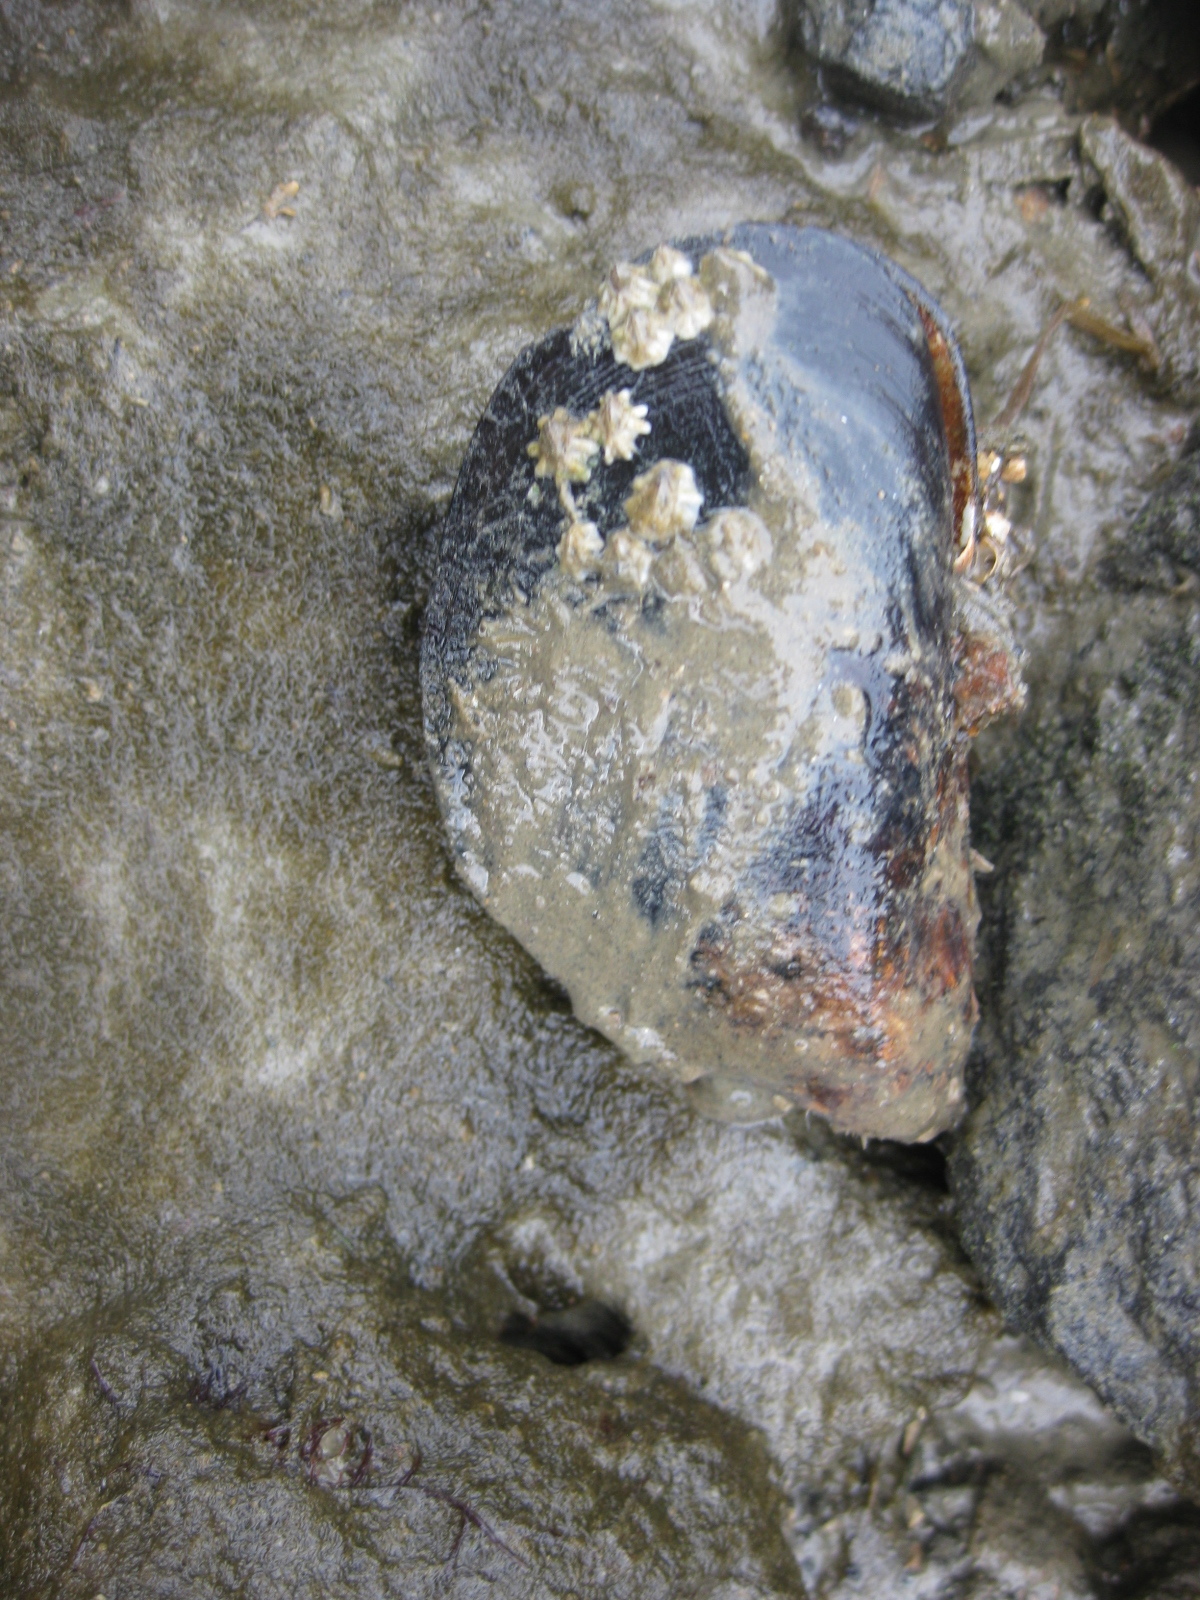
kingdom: Animalia
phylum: Mollusca
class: Bivalvia
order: Mytilida
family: Mytilidae
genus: Perna
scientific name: Perna canaliculus
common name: New zealand greenshelltm
